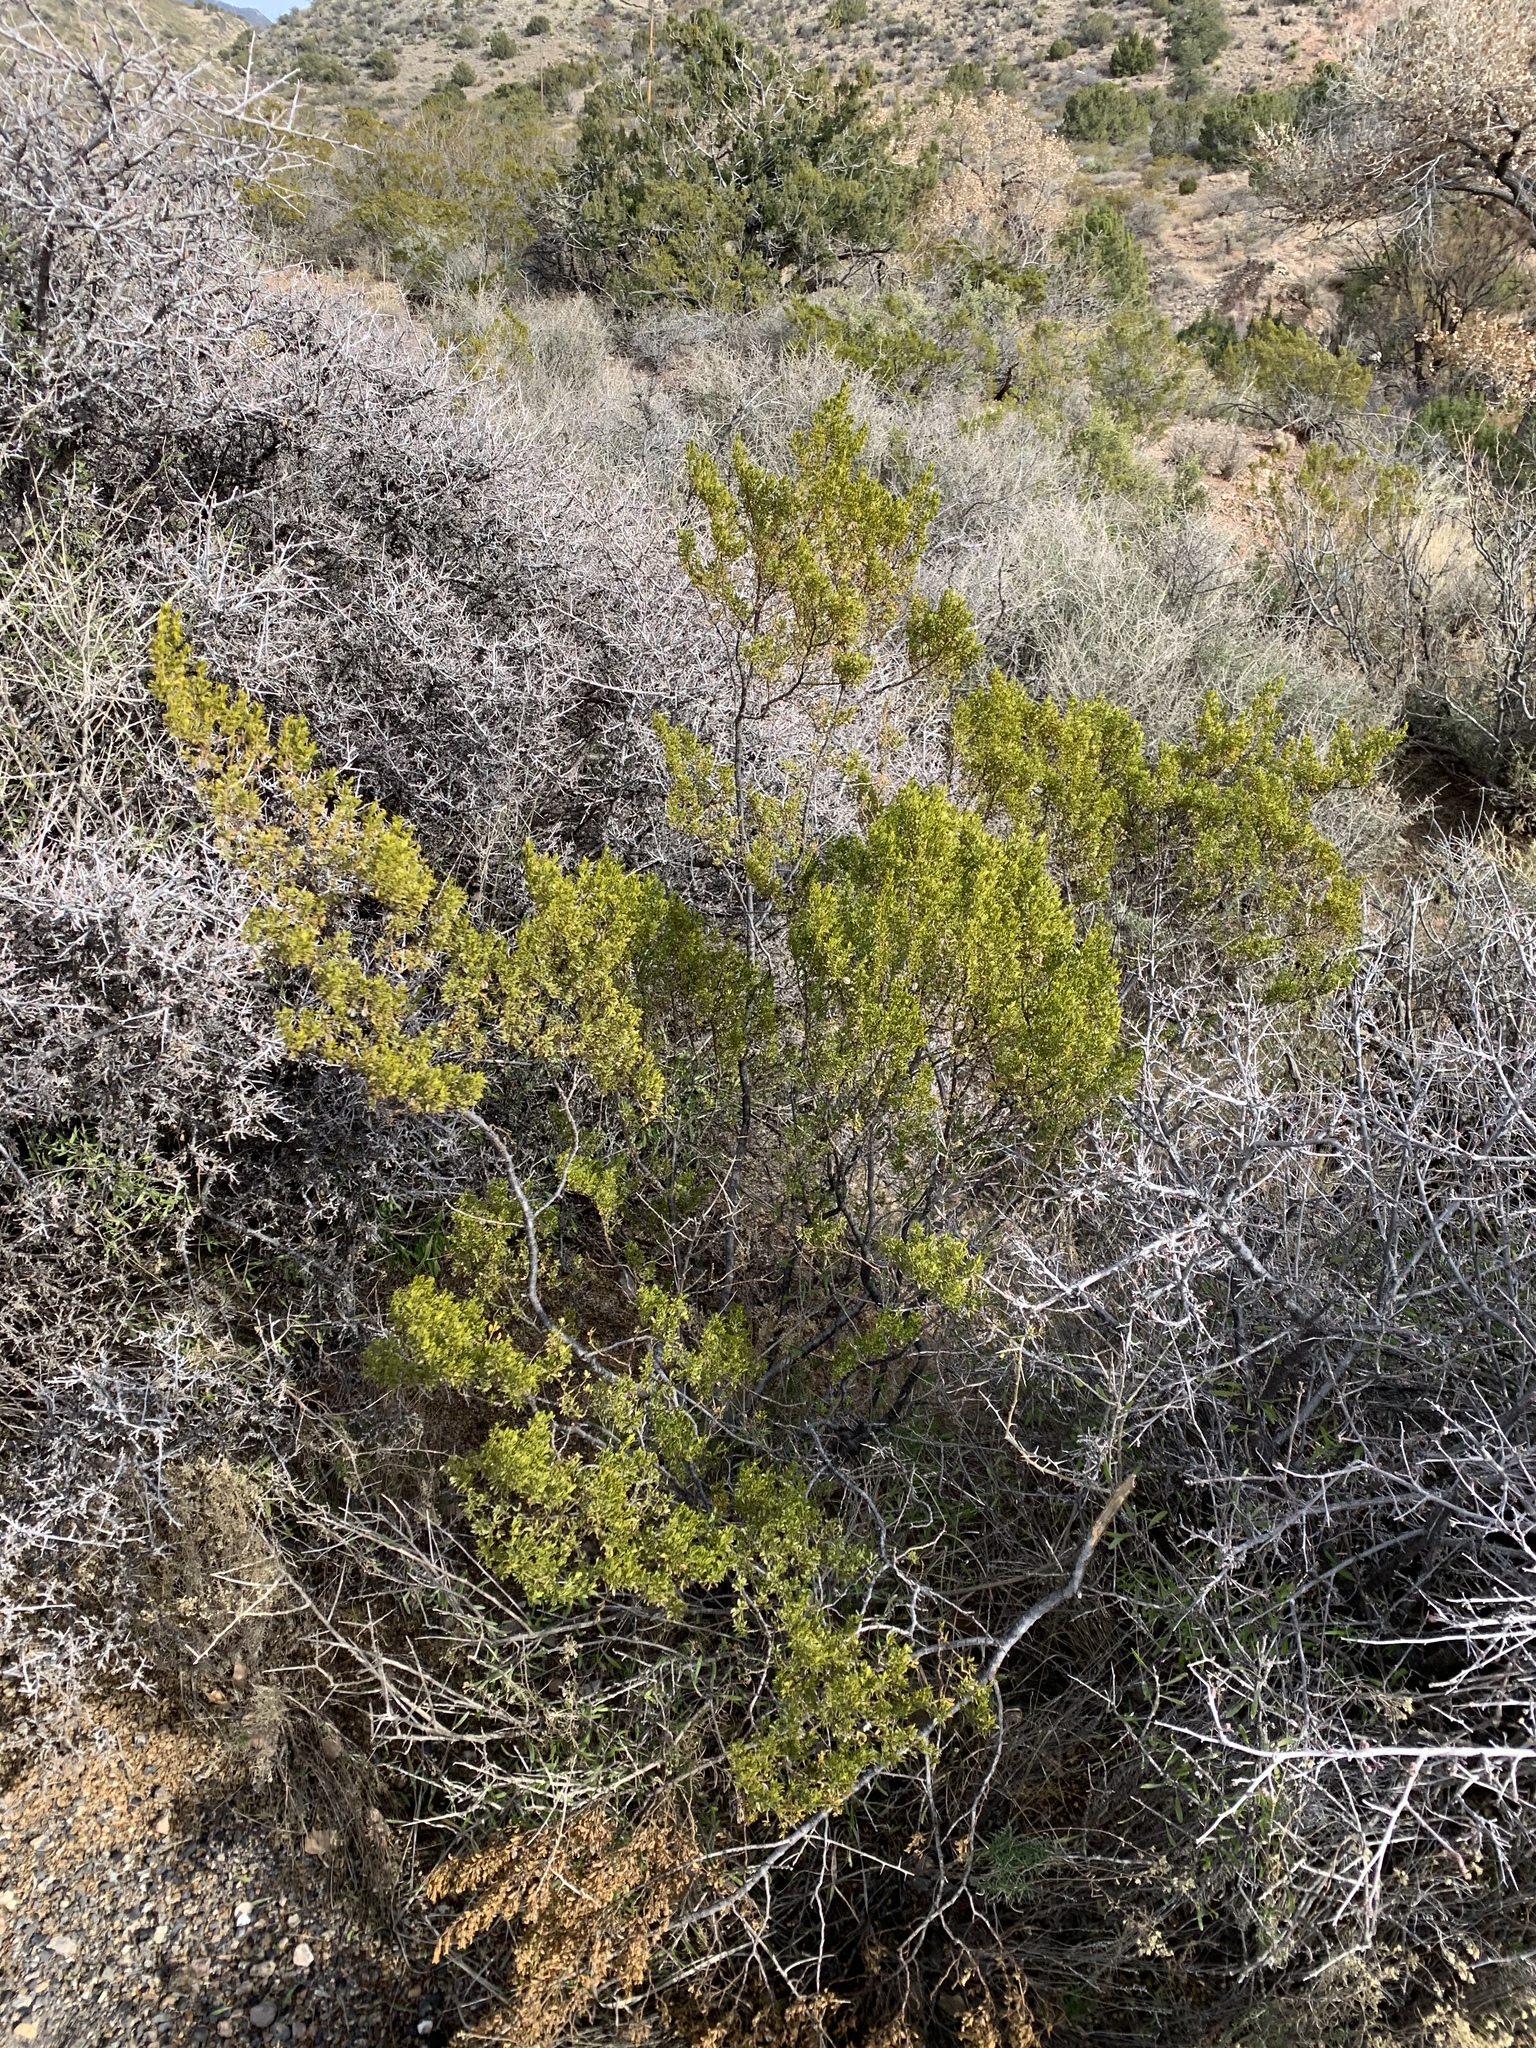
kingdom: Plantae
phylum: Tracheophyta
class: Magnoliopsida
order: Zygophyllales
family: Zygophyllaceae
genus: Larrea
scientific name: Larrea tridentata
